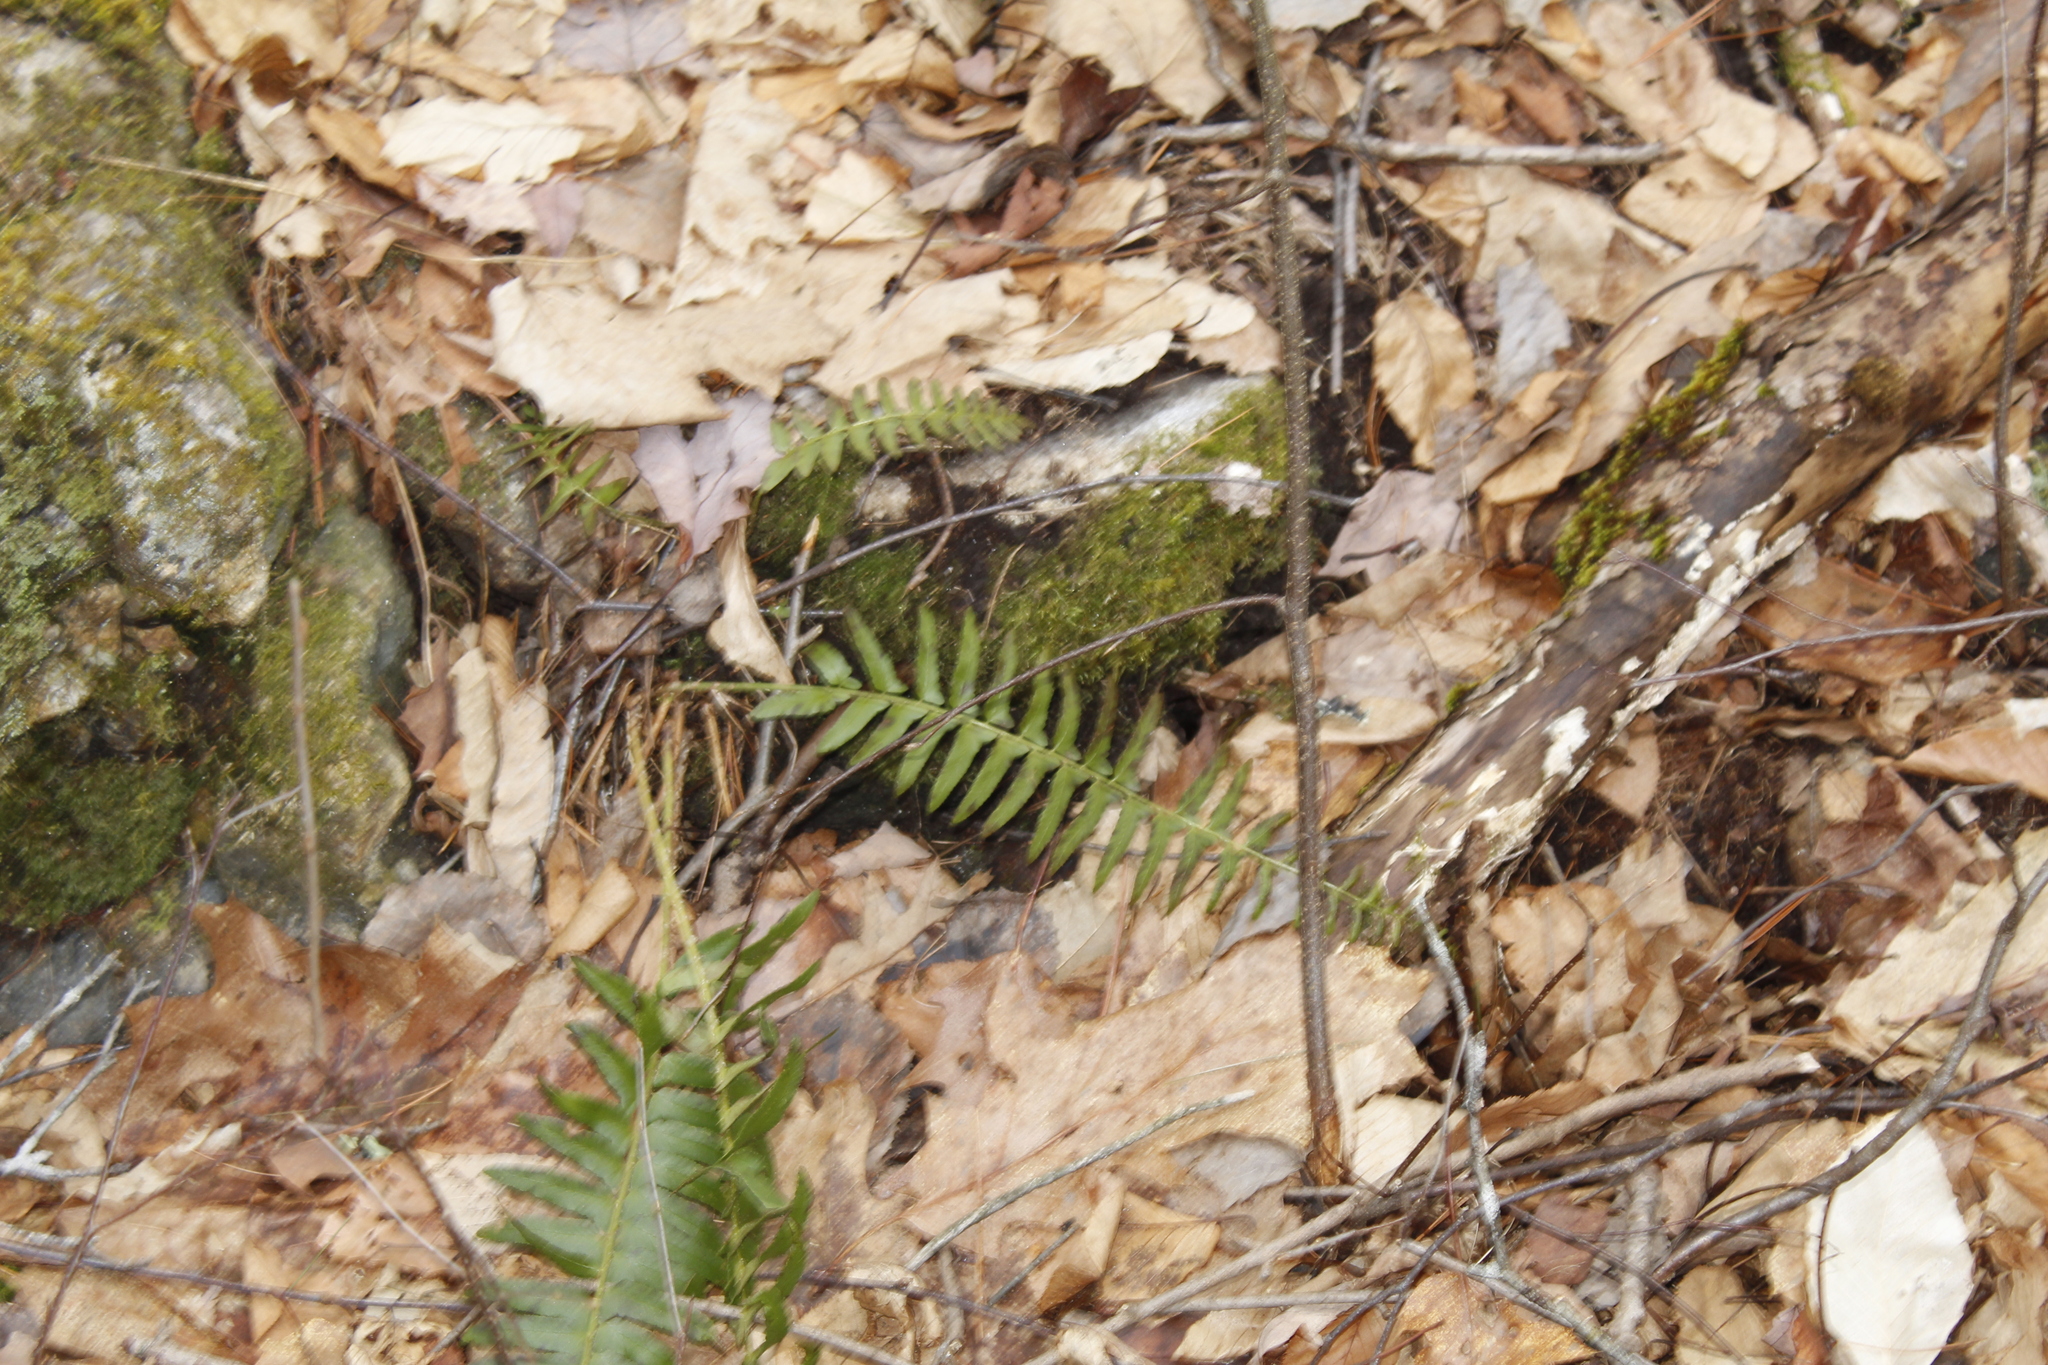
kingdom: Plantae
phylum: Tracheophyta
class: Polypodiopsida
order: Polypodiales
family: Dryopteridaceae
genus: Polystichum
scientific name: Polystichum acrostichoides
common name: Christmas fern
